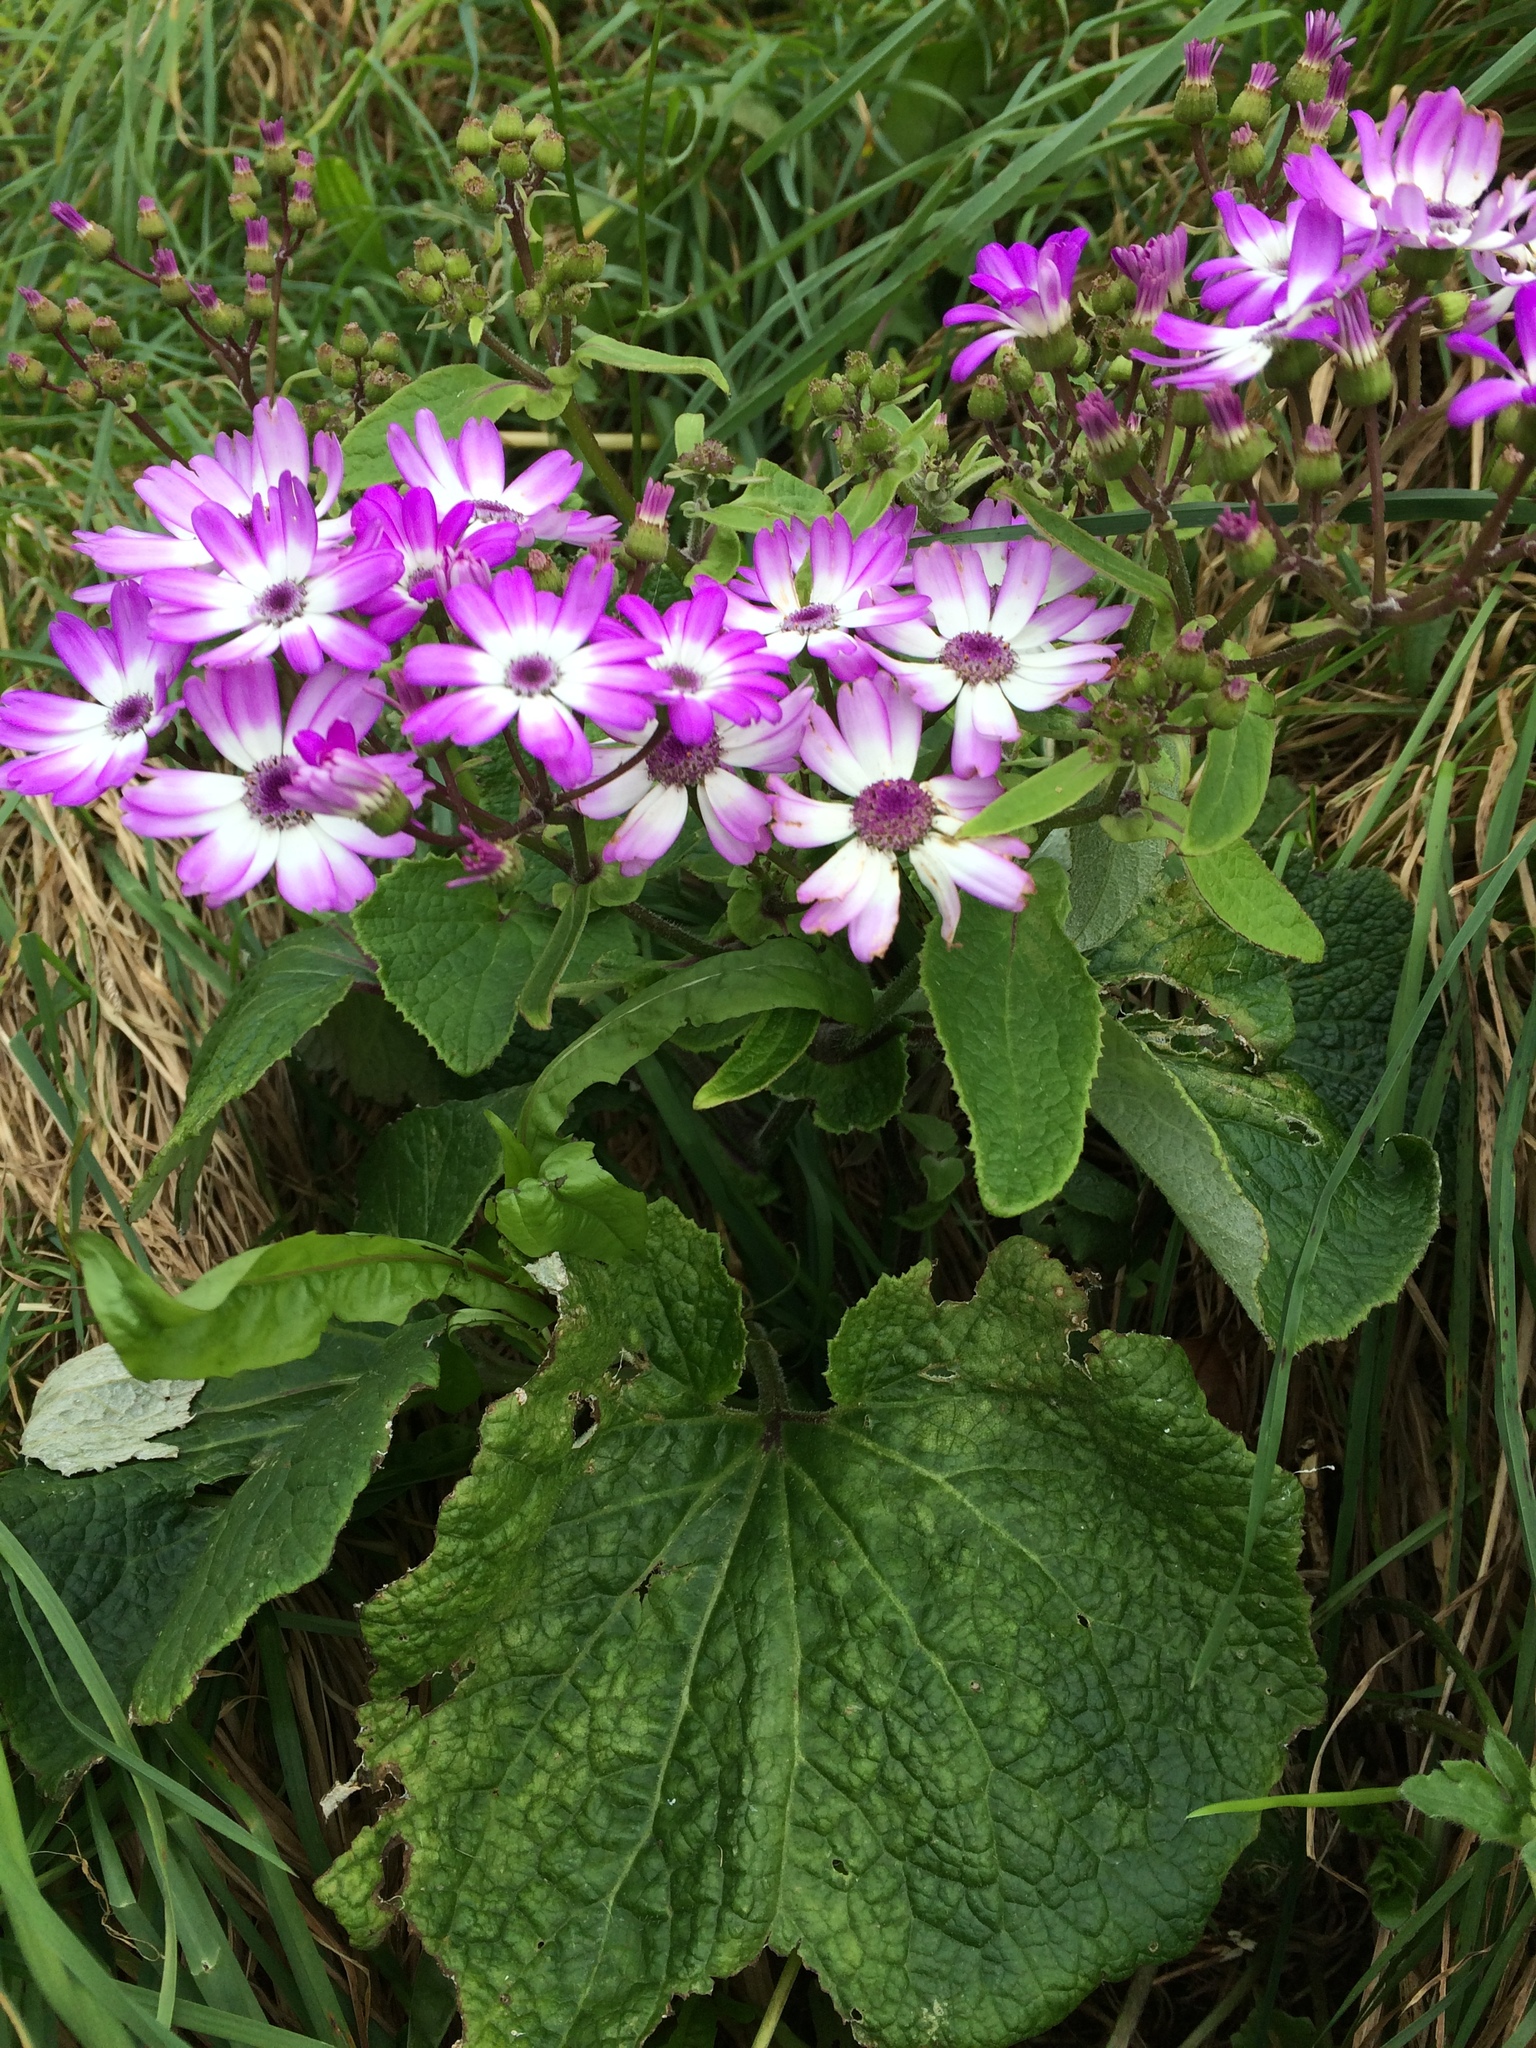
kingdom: Plantae
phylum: Tracheophyta
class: Magnoliopsida
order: Asterales
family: Asteraceae
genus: Pericallis
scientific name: Pericallis hybrida
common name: Cineraria
